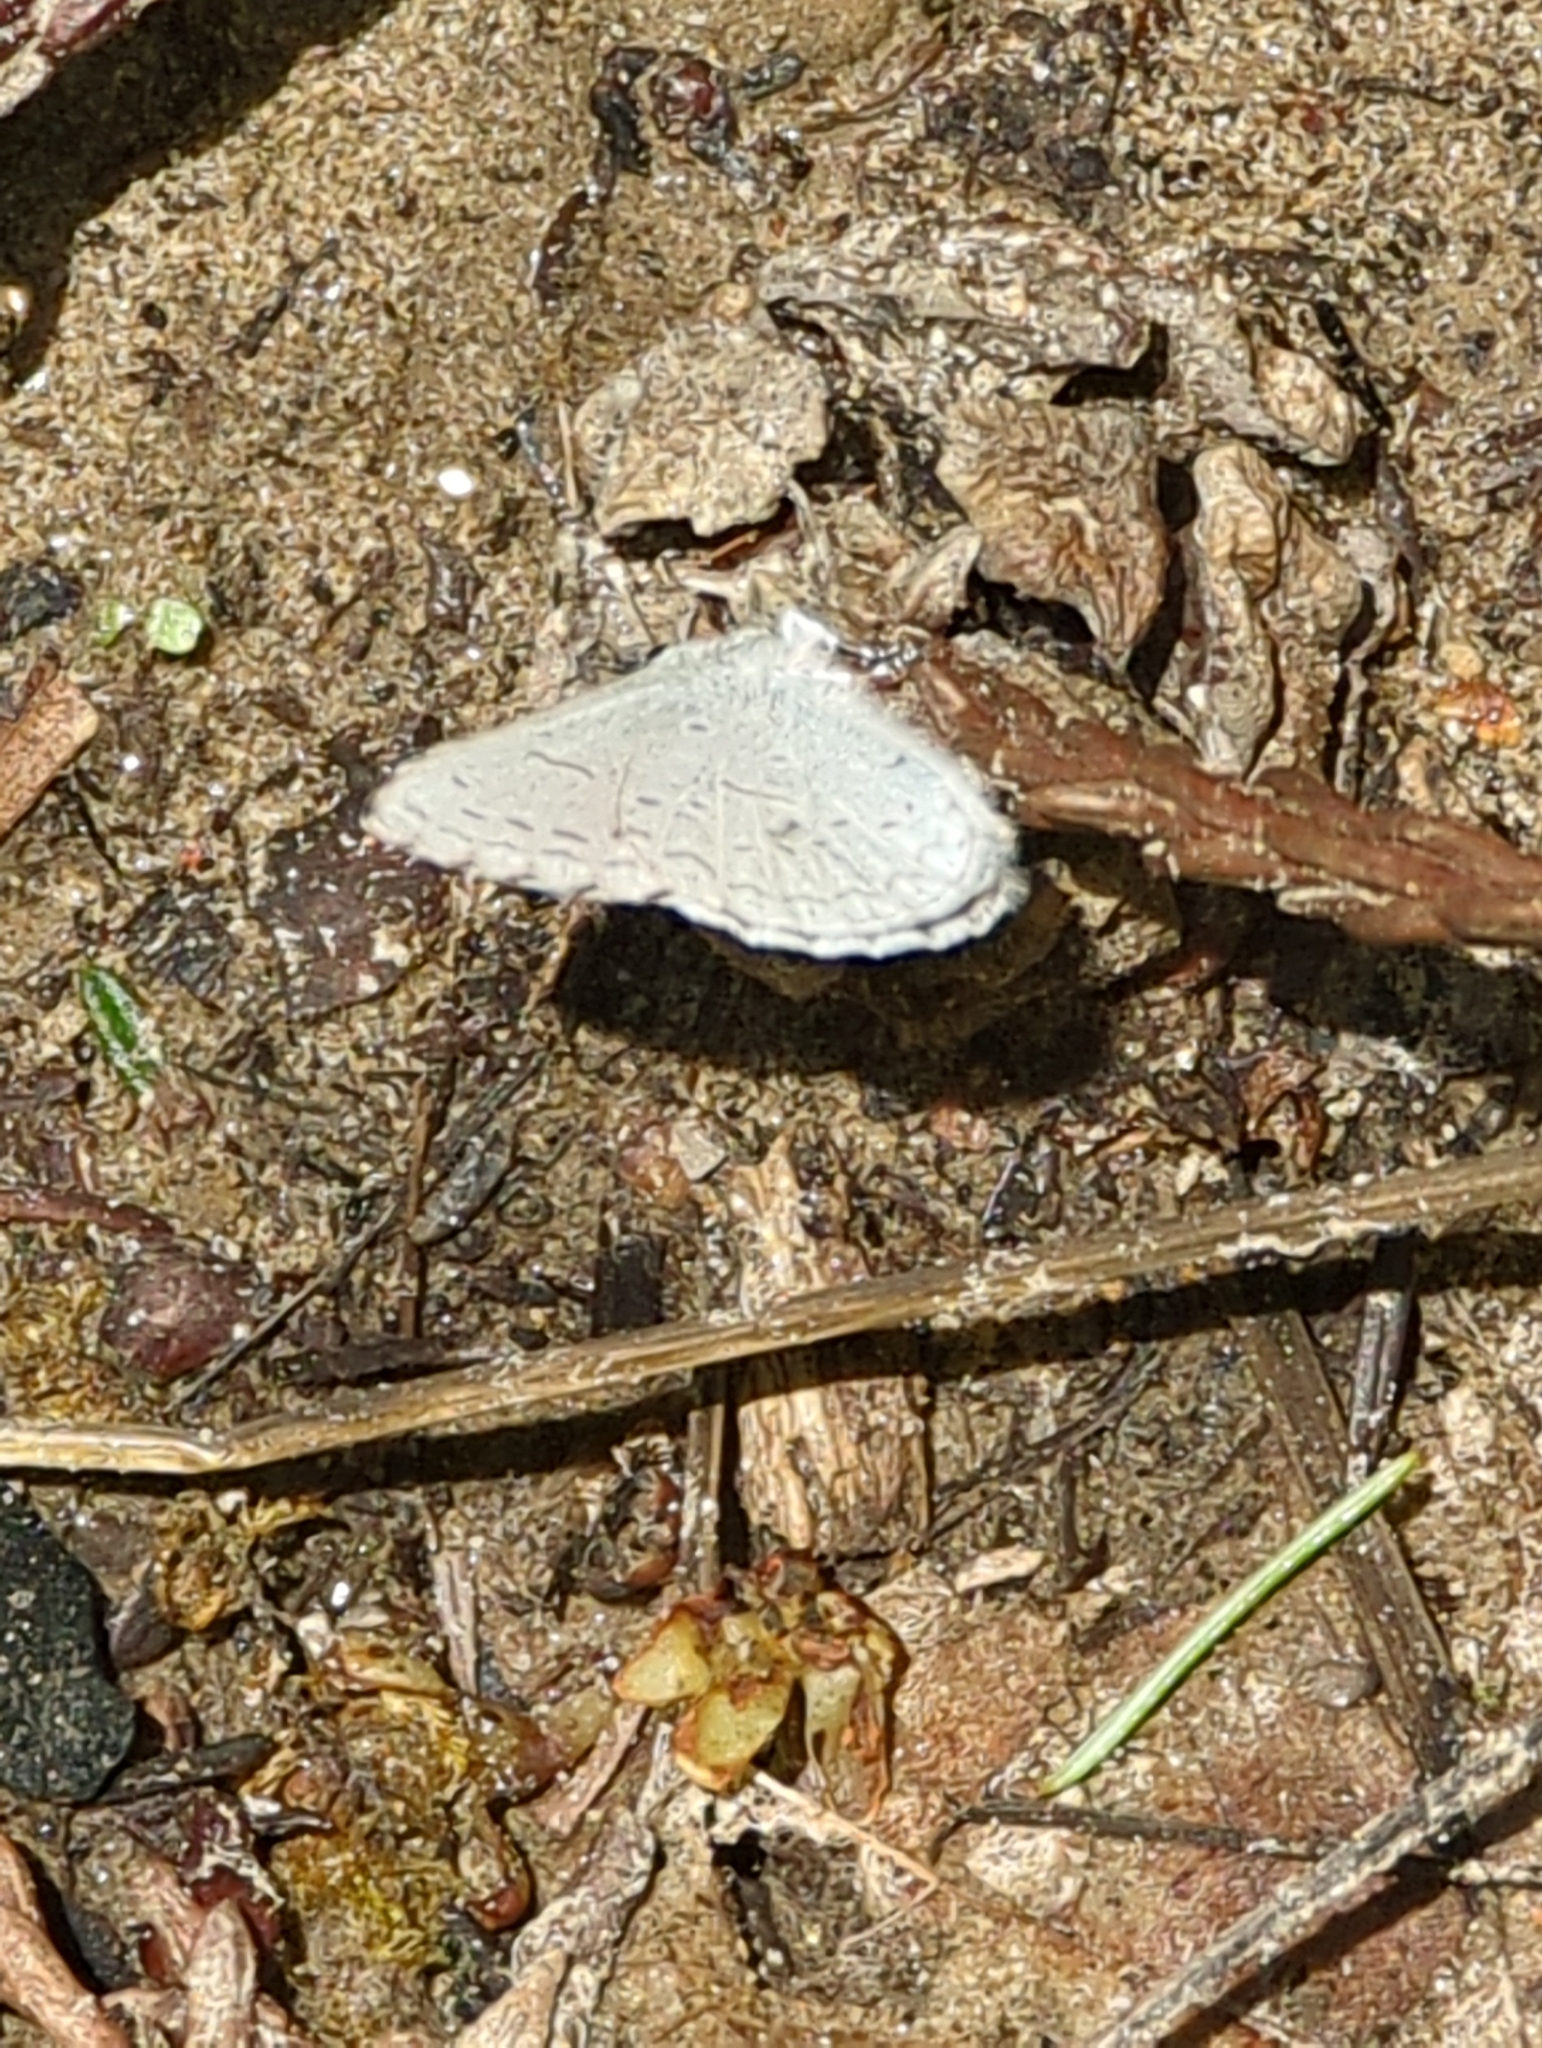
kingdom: Animalia
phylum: Arthropoda
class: Insecta
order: Lepidoptera
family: Lycaenidae
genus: Celastrina
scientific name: Celastrina ladon
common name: Spring azure
